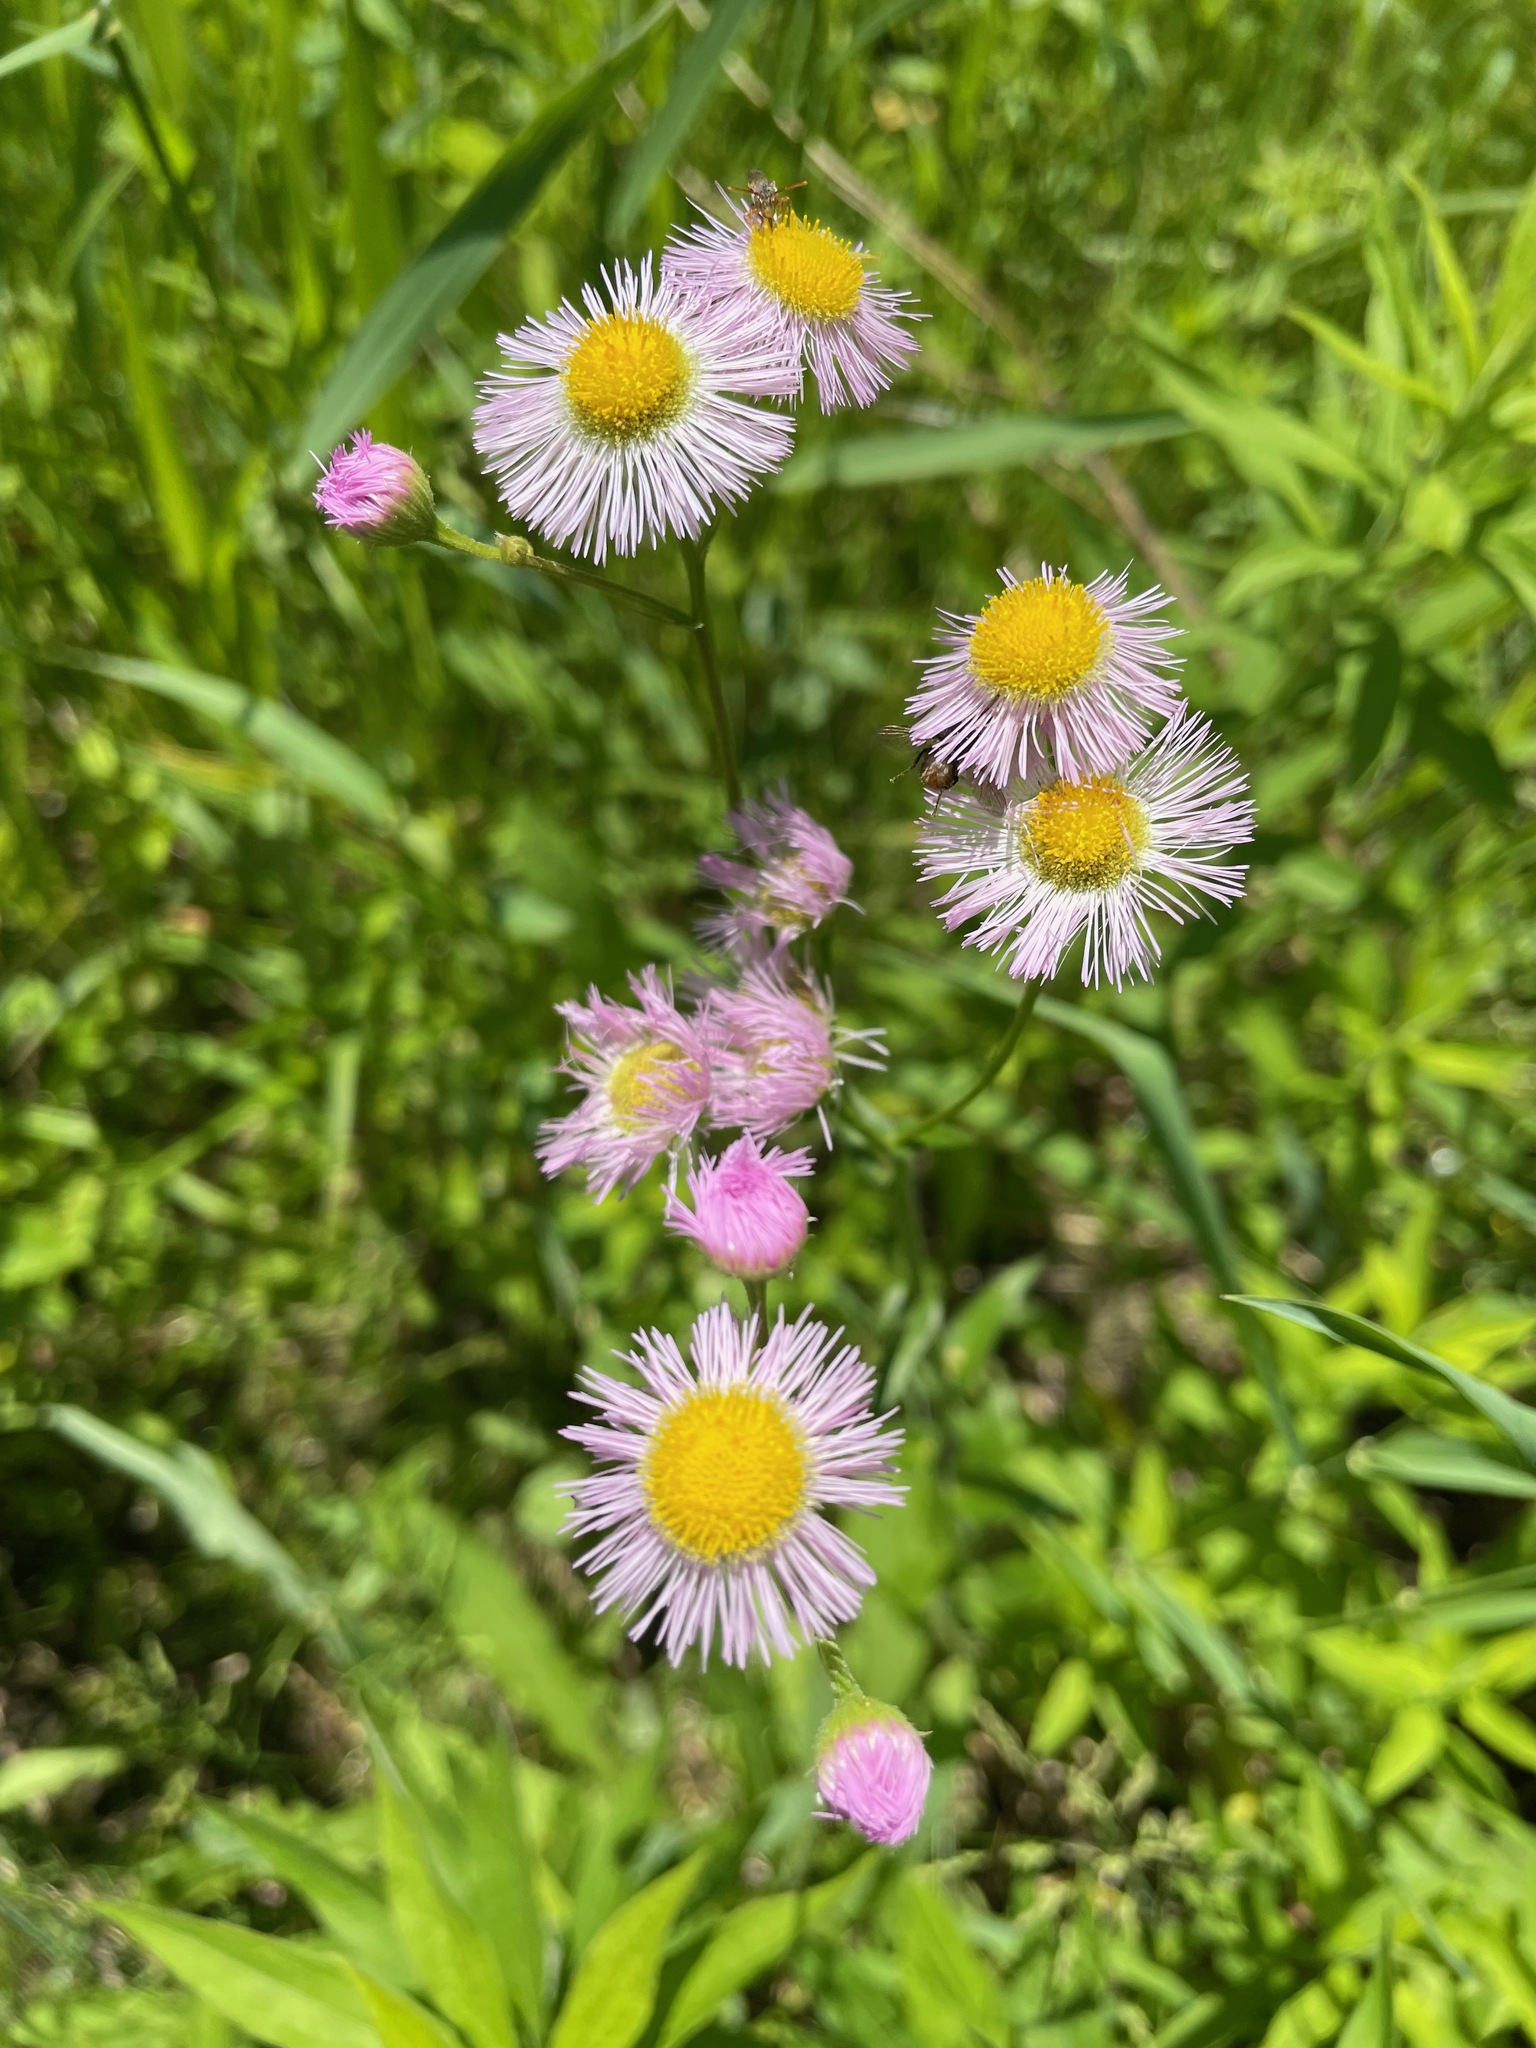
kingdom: Plantae
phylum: Tracheophyta
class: Magnoliopsida
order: Asterales
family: Asteraceae
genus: Erigeron
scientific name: Erigeron philadelphicus
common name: Robin's-plantain
